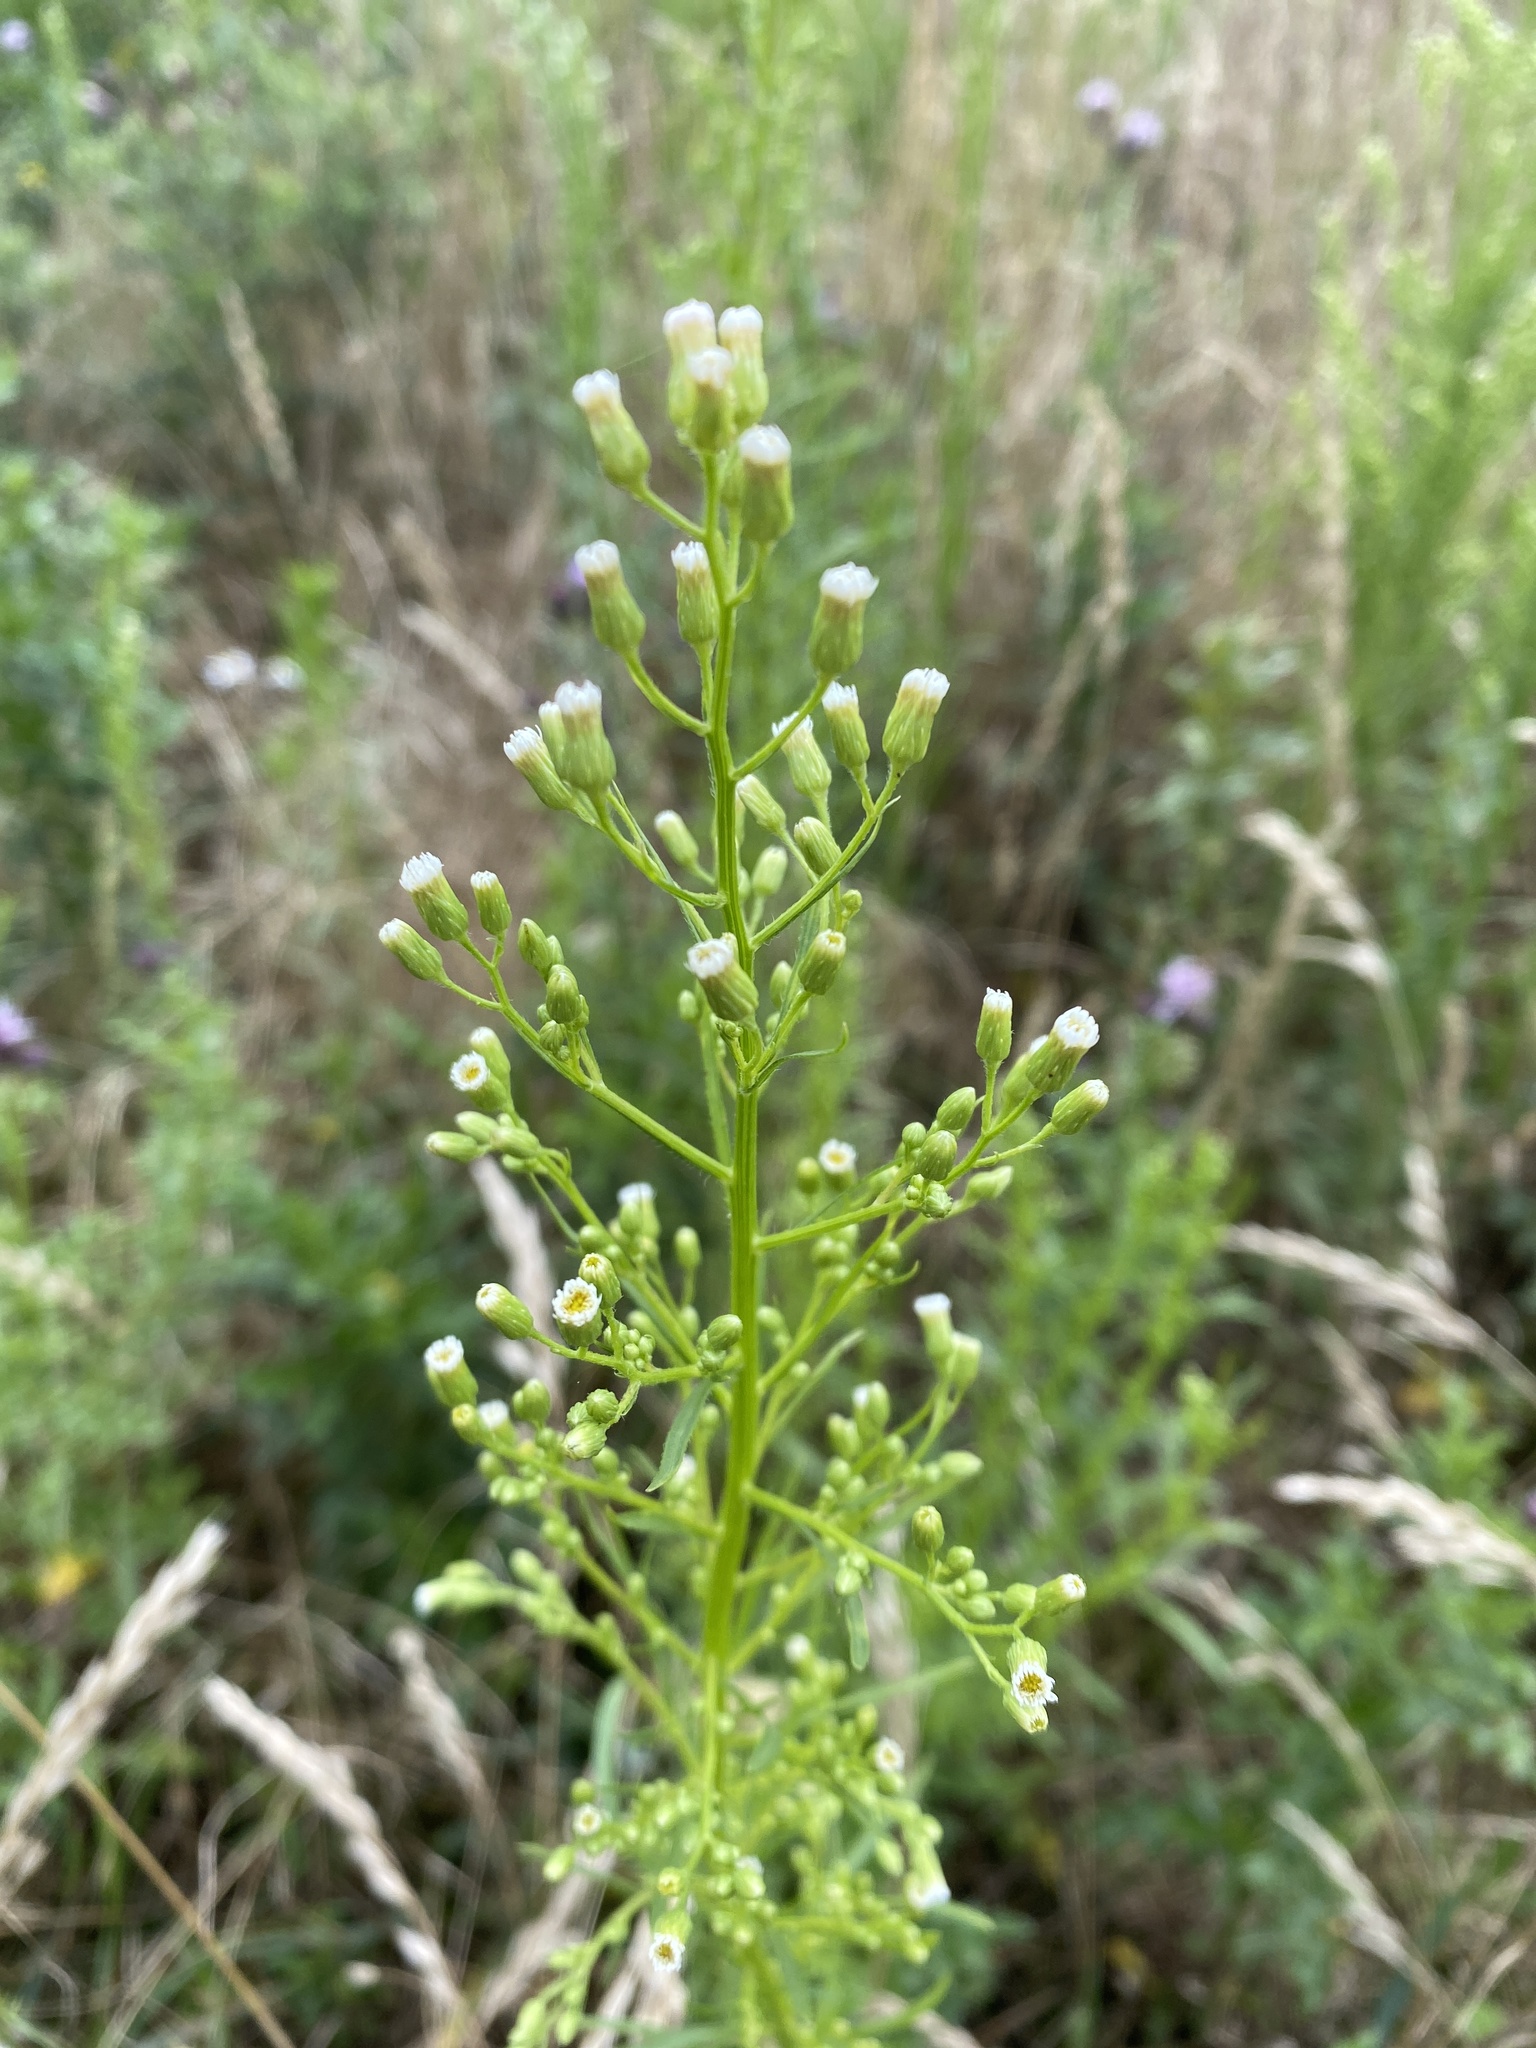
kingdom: Plantae
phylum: Tracheophyta
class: Magnoliopsida
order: Asterales
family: Asteraceae
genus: Erigeron
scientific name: Erigeron canadensis
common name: Canadian fleabane
